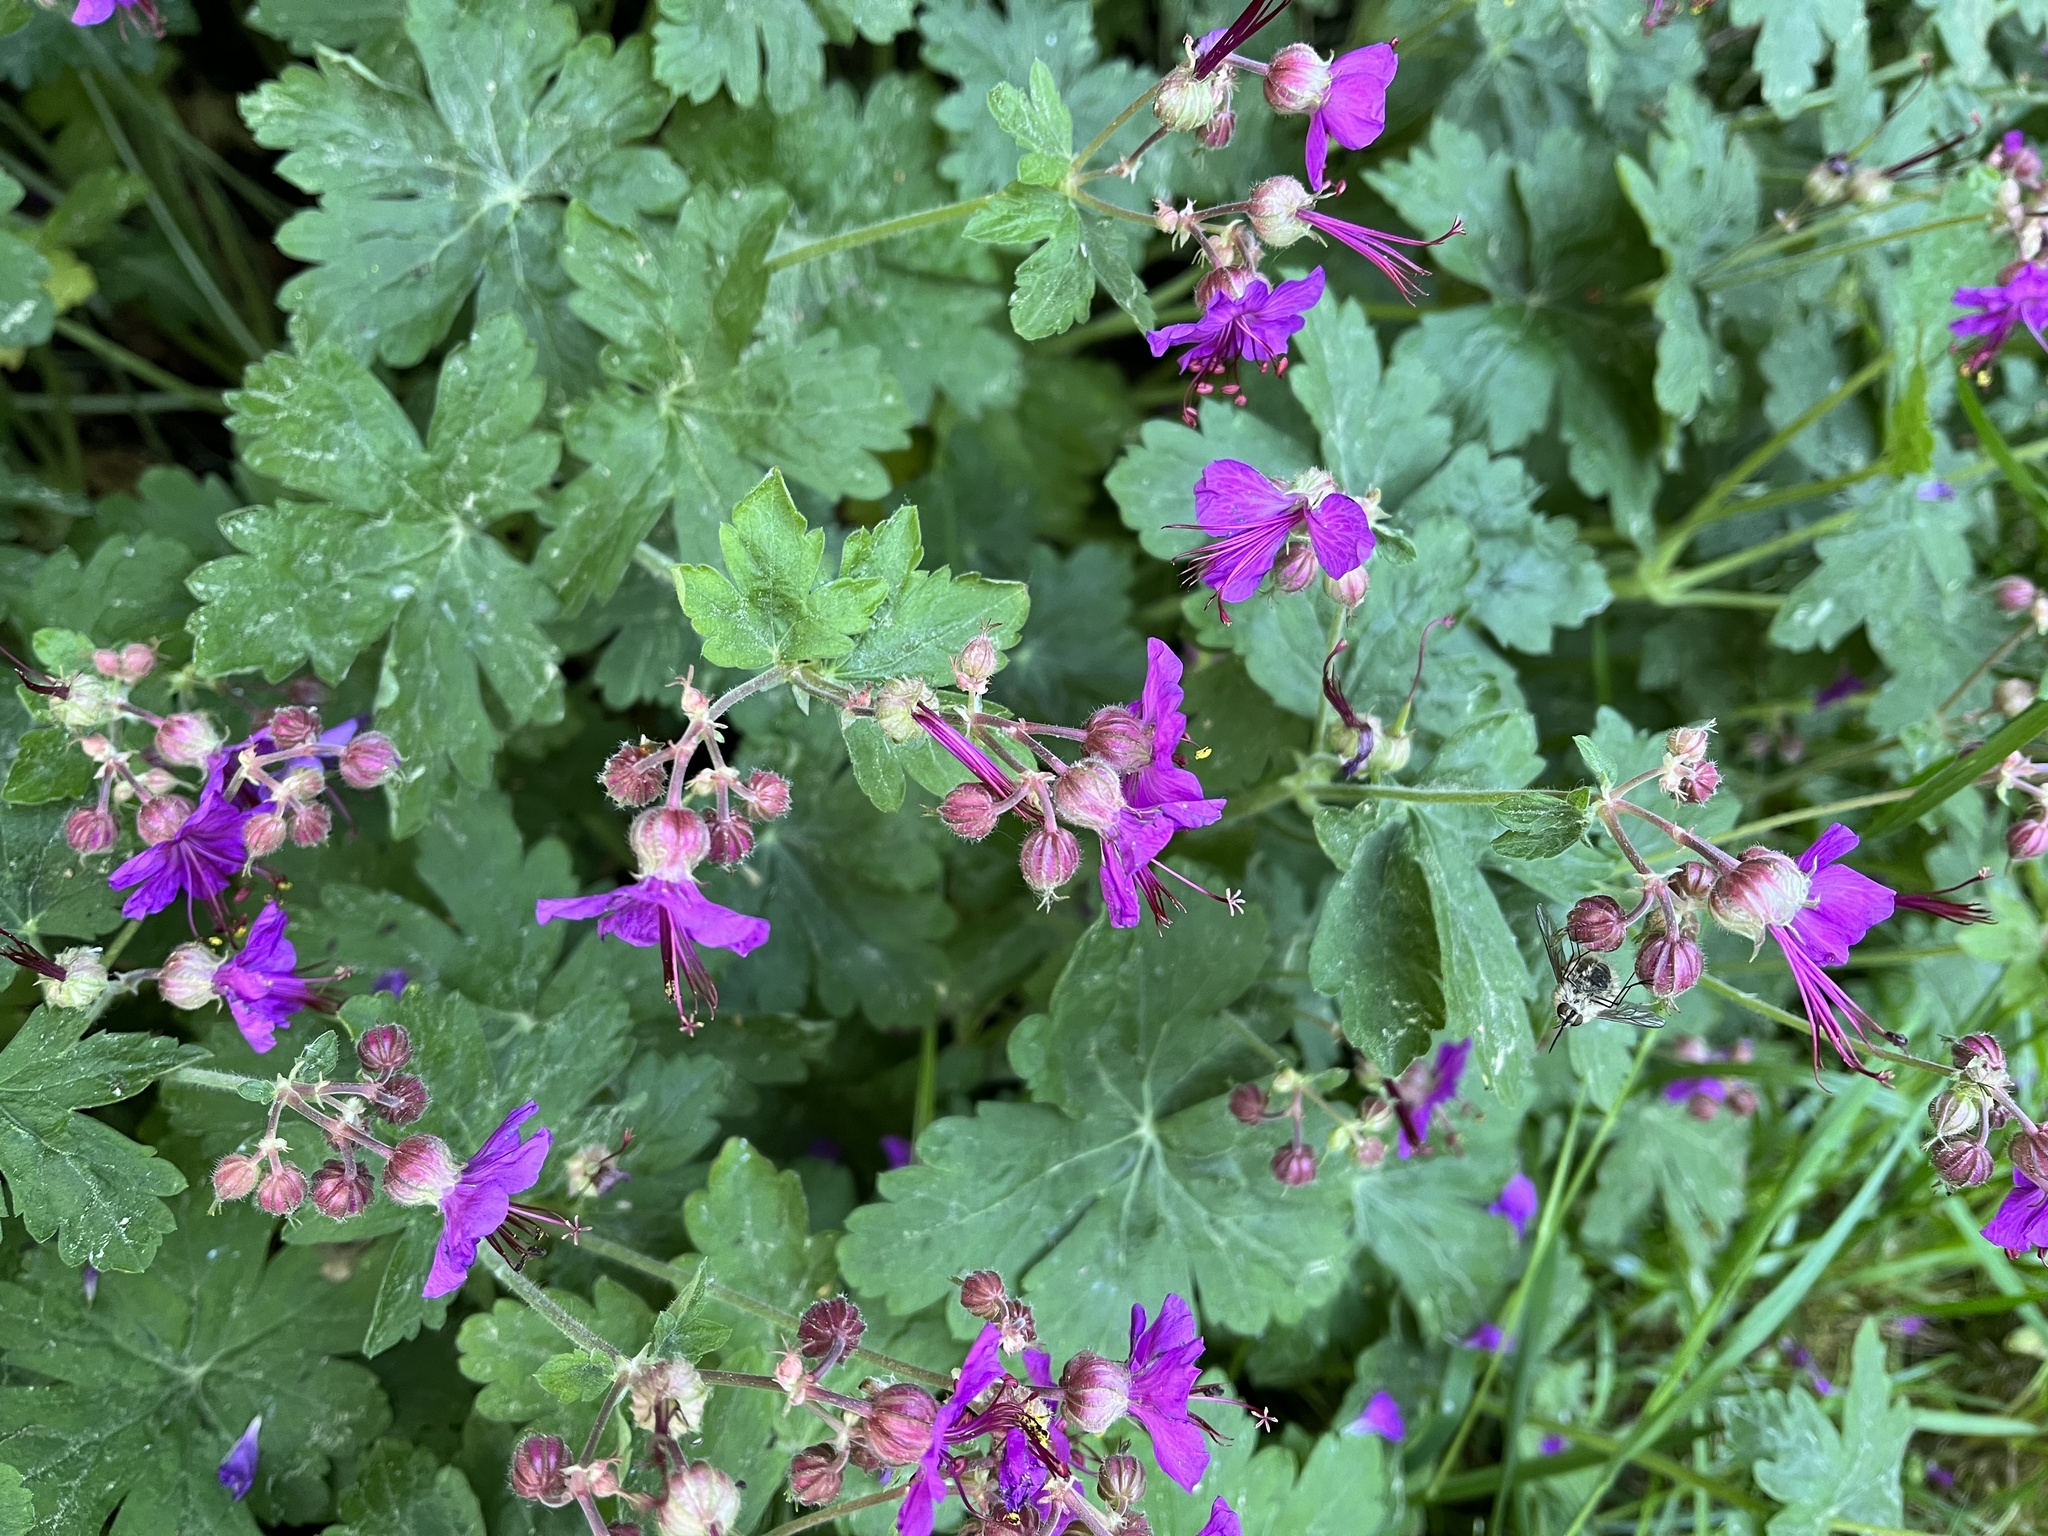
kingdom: Plantae
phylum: Tracheophyta
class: Magnoliopsida
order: Geraniales
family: Geraniaceae
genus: Geranium
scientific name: Geranium macrorrhizum
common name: Rock crane's-bill
